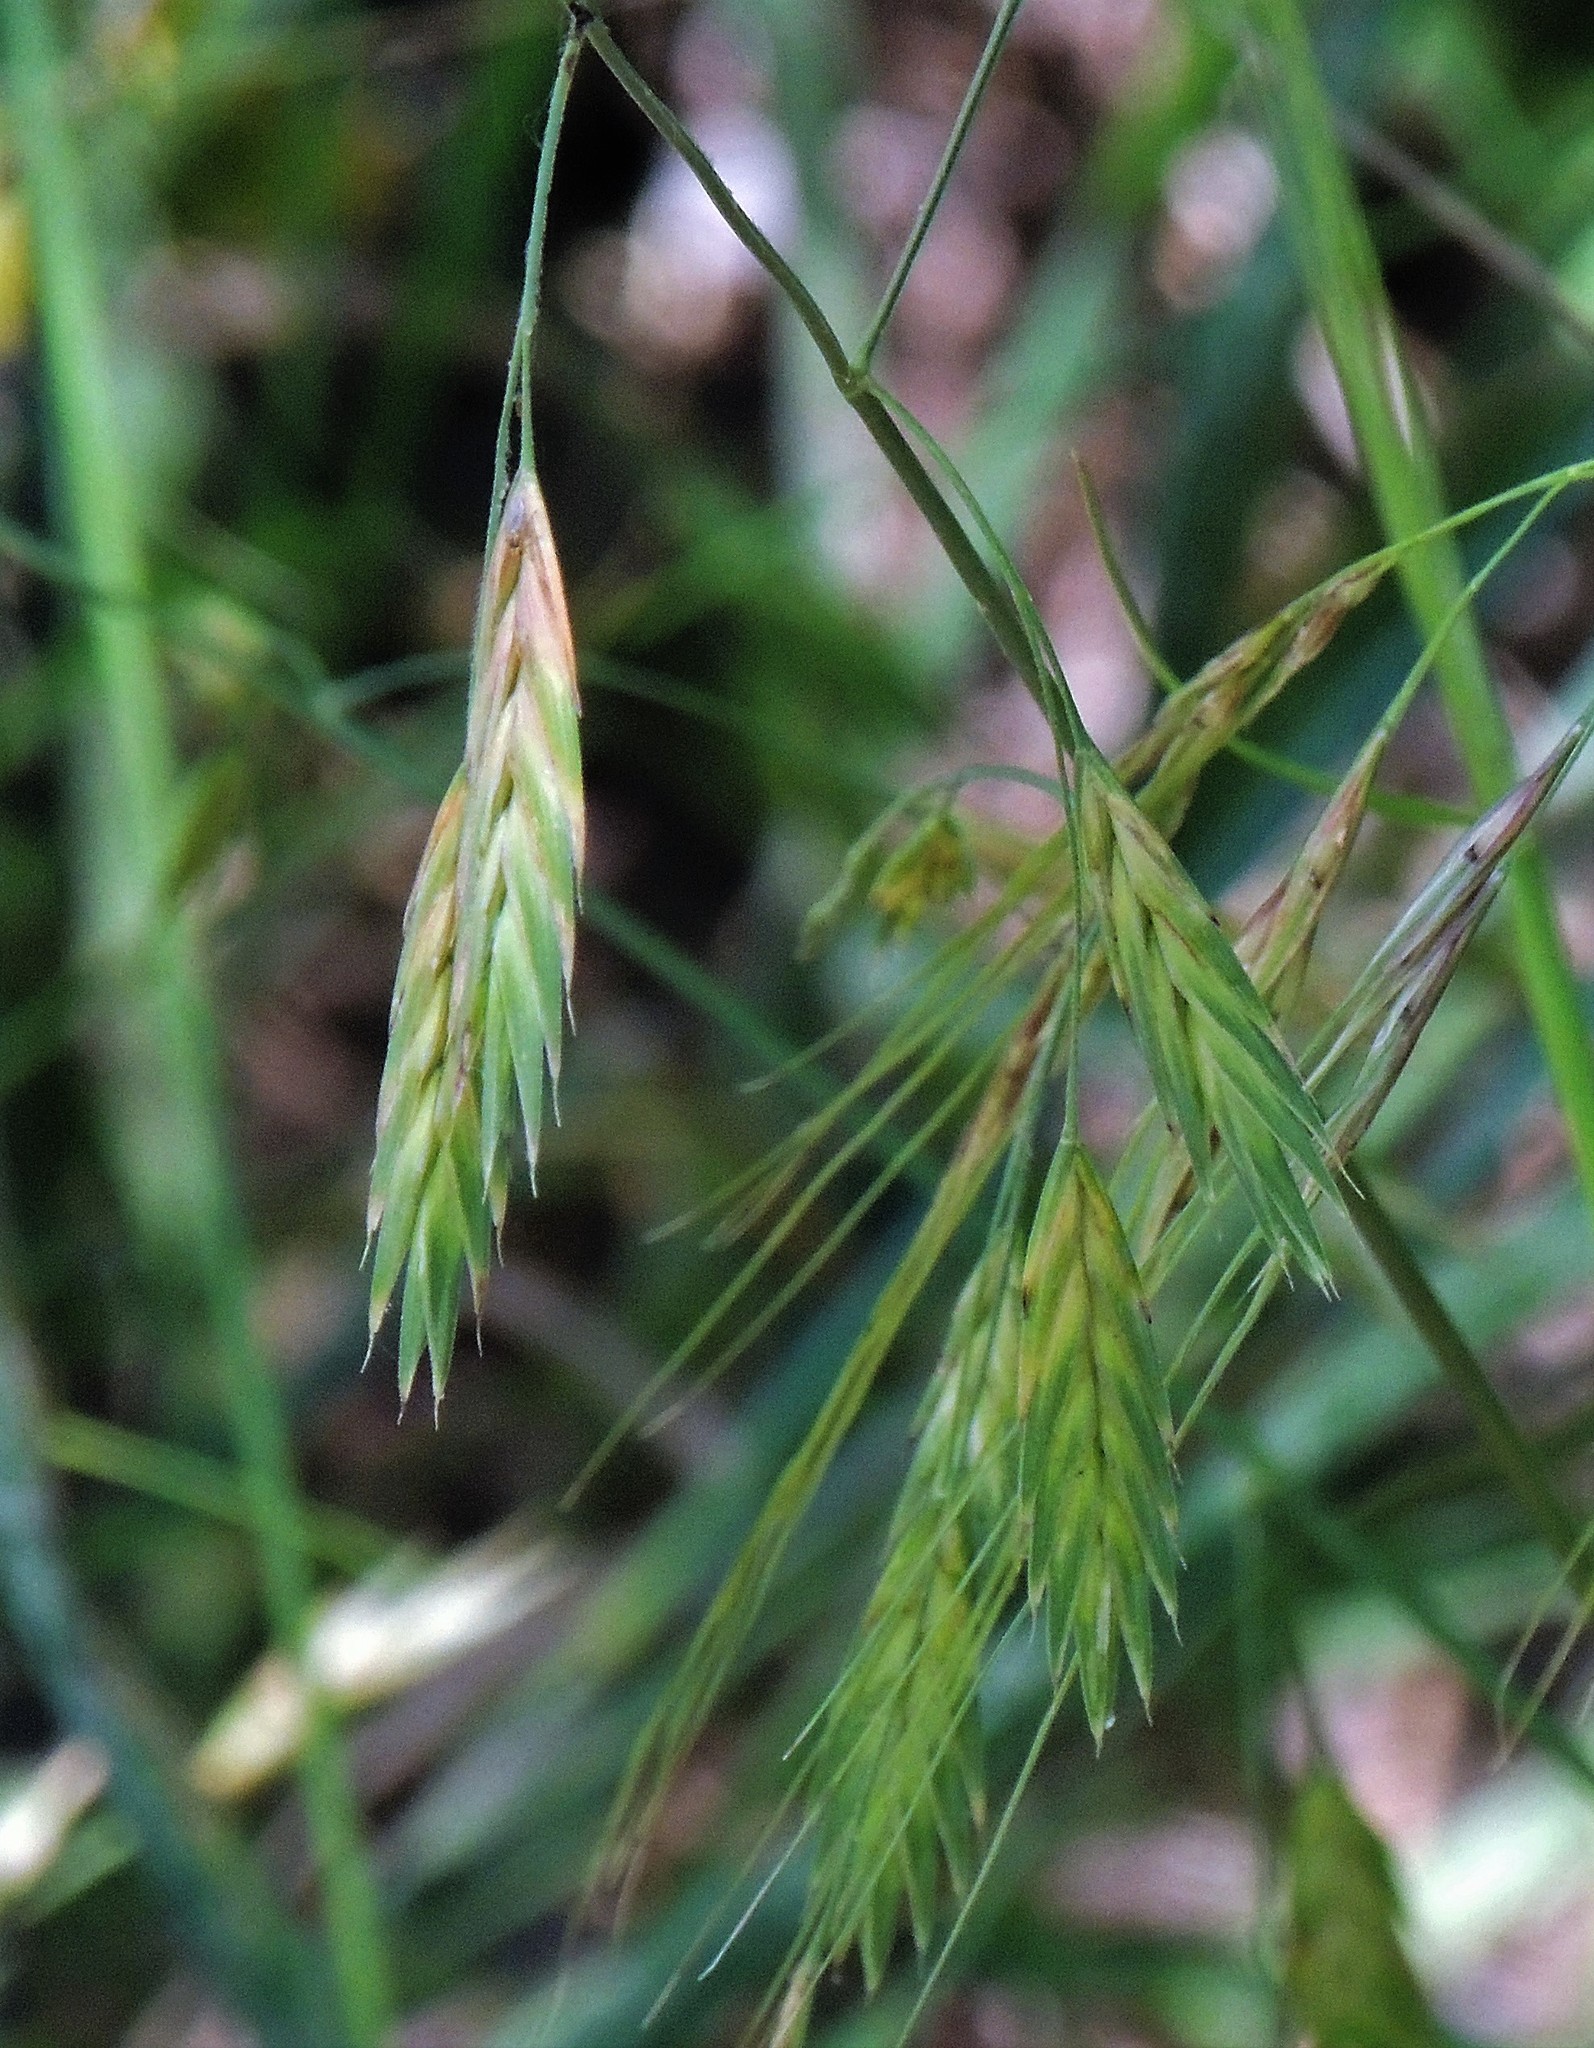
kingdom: Plantae
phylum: Tracheophyta
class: Liliopsida
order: Poales
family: Poaceae
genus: Bromus
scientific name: Bromus catharticus
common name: Rescuegrass
